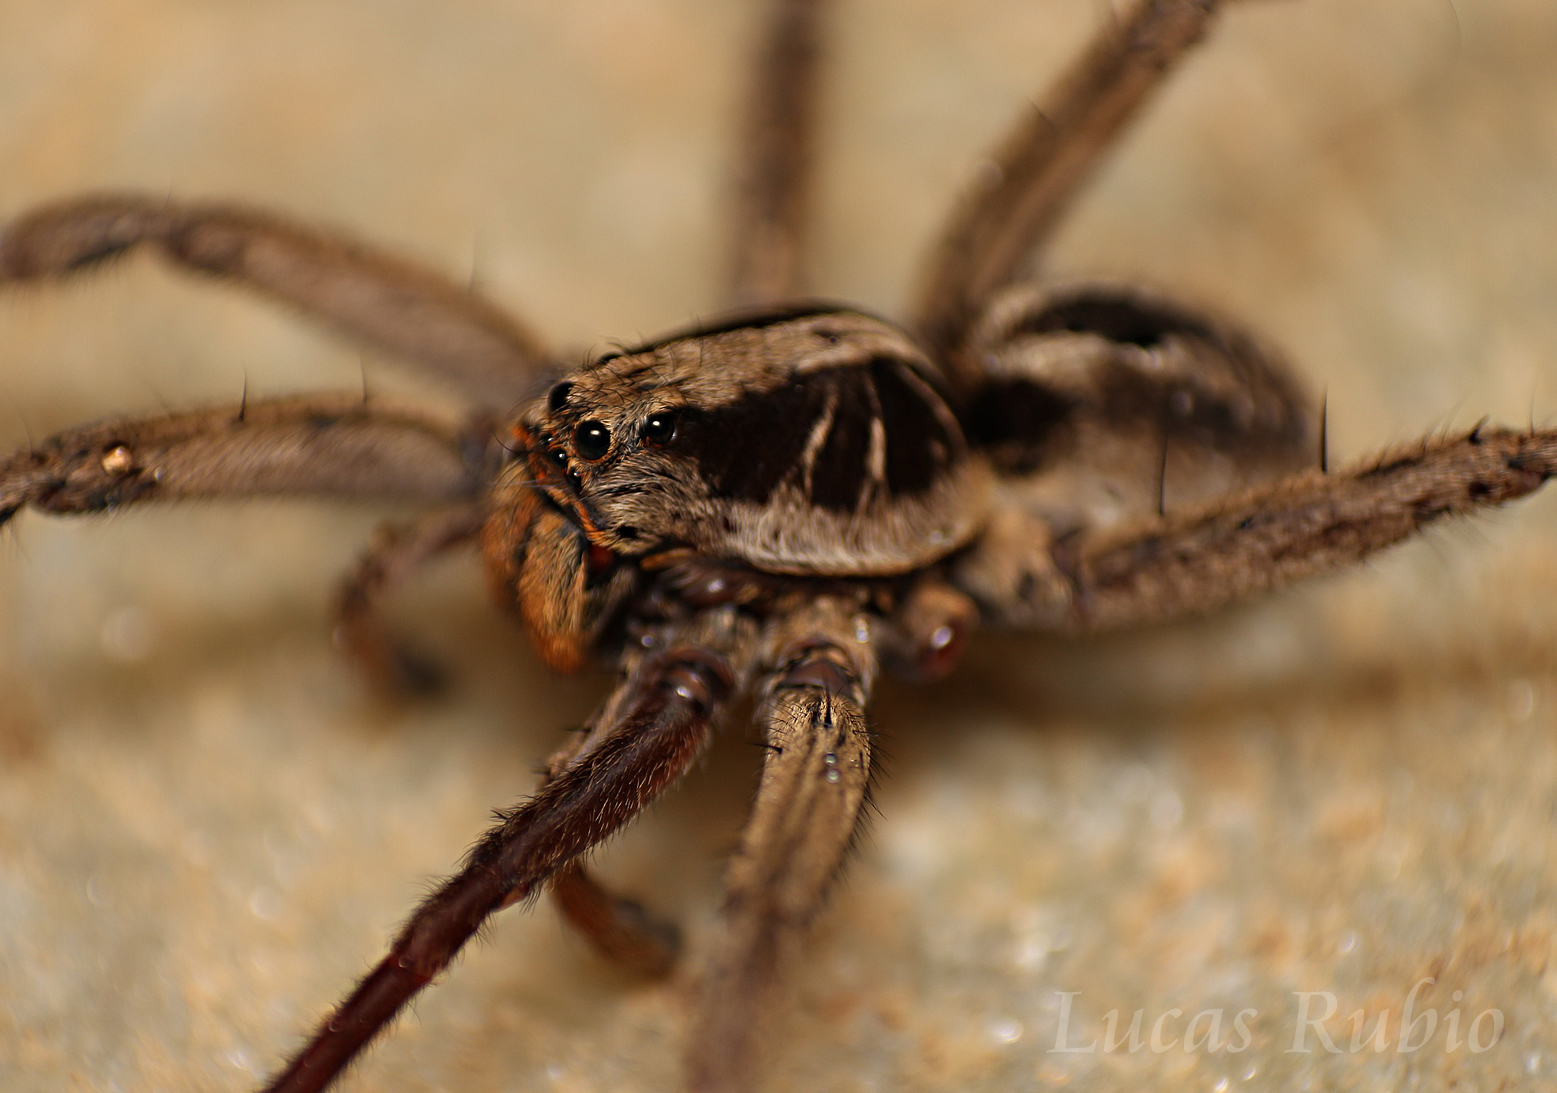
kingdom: Animalia
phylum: Arthropoda
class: Arachnida
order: Araneae
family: Lycosidae
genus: Lycosa
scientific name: Lycosa erythrognatha
